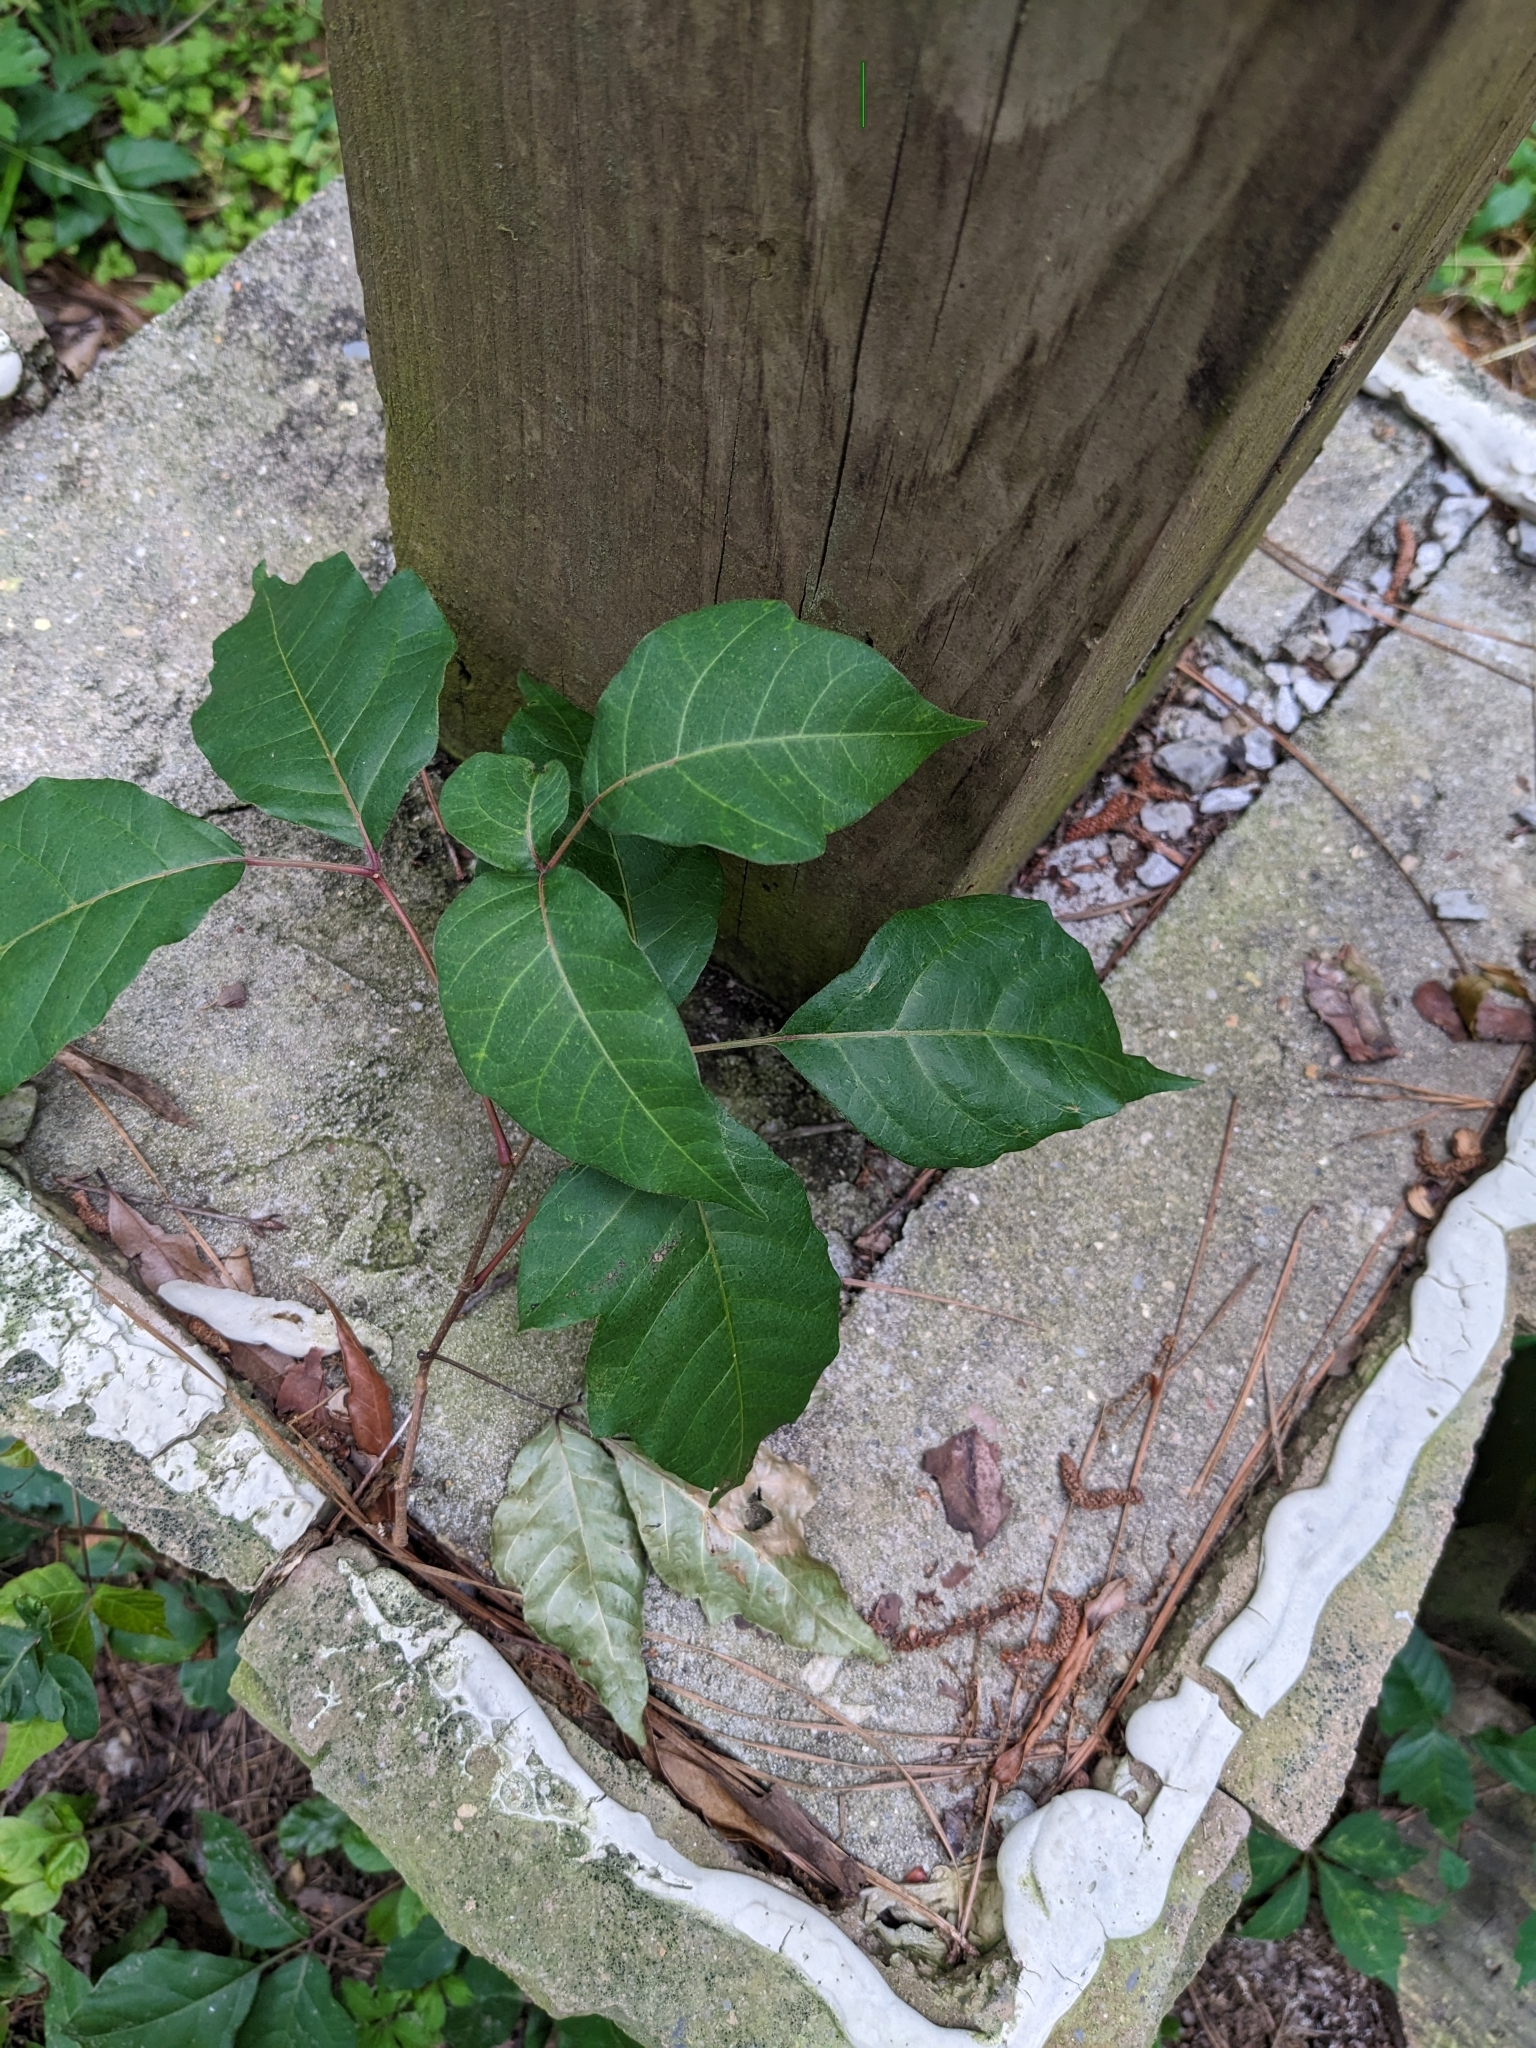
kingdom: Plantae
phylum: Tracheophyta
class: Magnoliopsida
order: Sapindales
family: Anacardiaceae
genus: Toxicodendron
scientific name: Toxicodendron radicans
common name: Poison ivy
